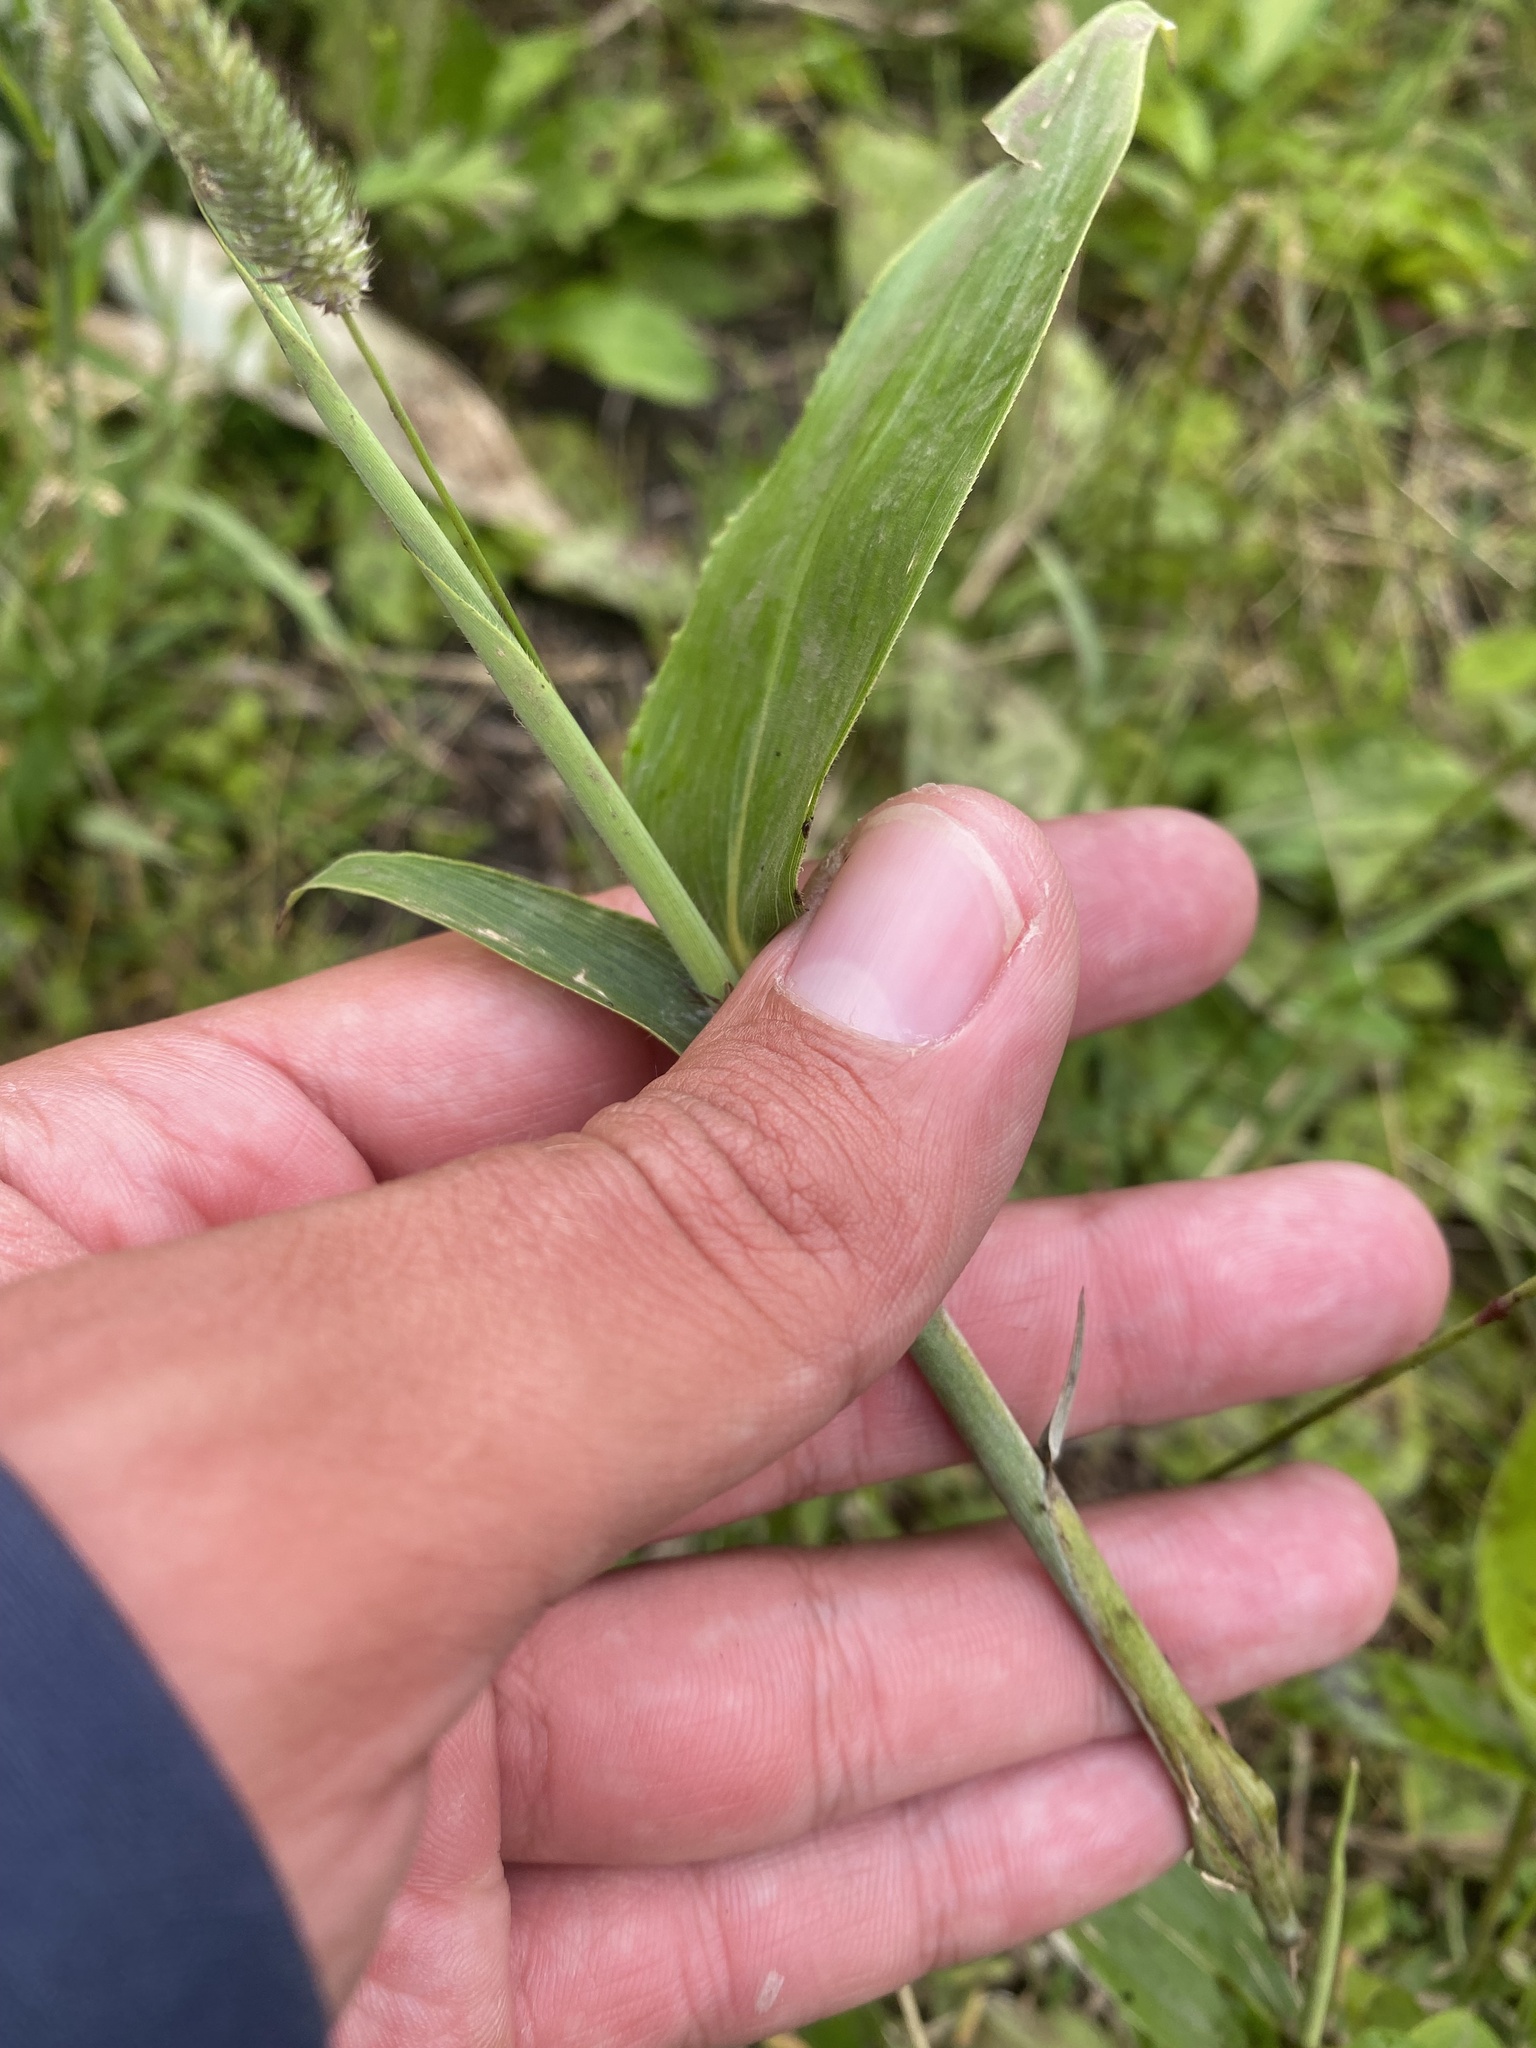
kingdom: Plantae
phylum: Tracheophyta
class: Liliopsida
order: Poales
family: Poaceae
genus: Phleum
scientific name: Phleum pratense
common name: Timothy grass
